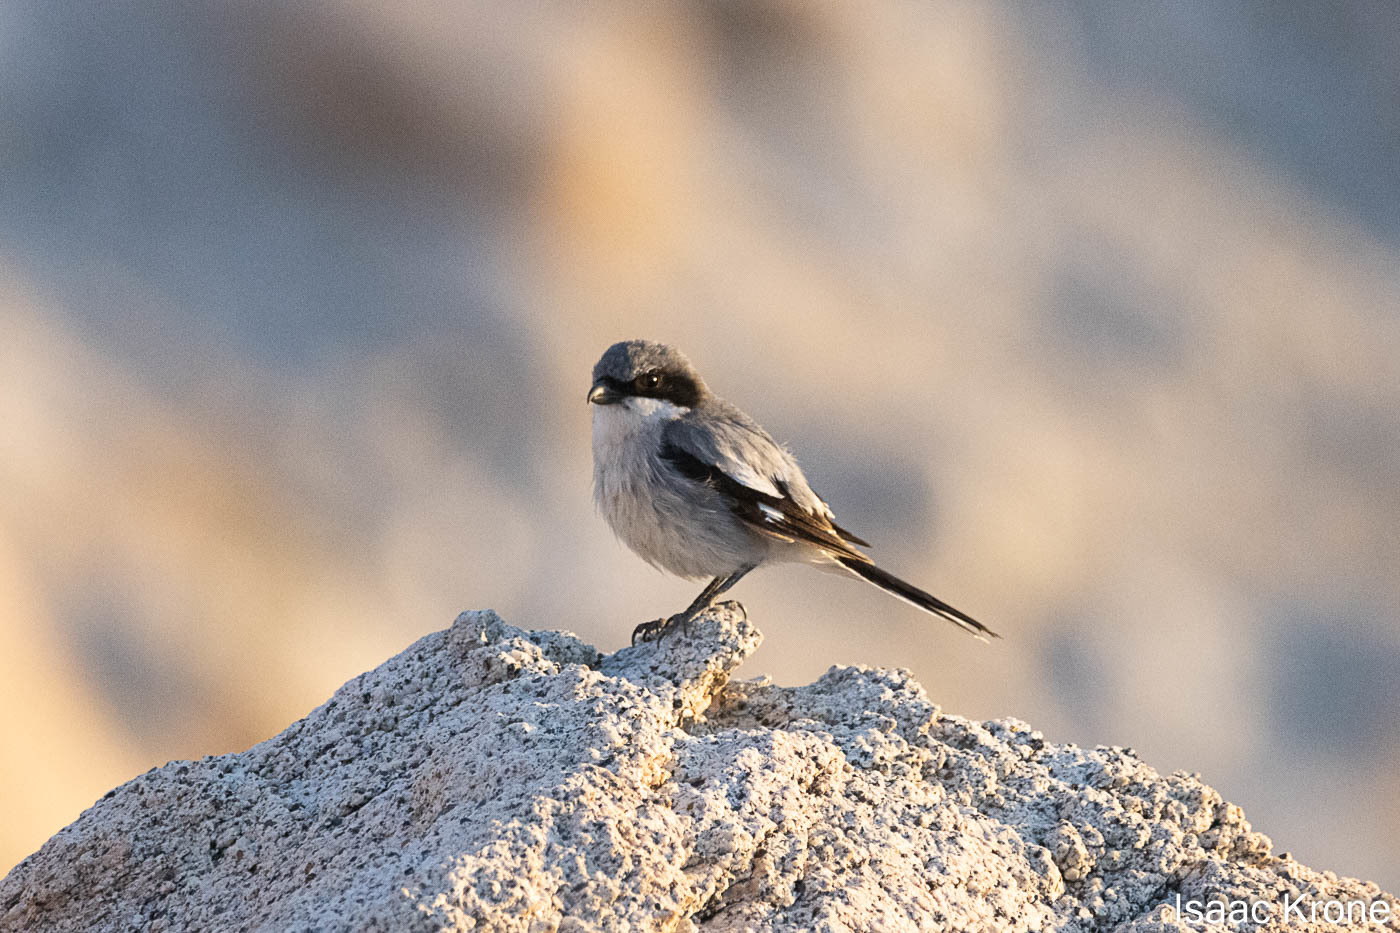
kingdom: Animalia
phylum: Chordata
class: Aves
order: Passeriformes
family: Laniidae
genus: Lanius
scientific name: Lanius ludovicianus
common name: Loggerhead shrike
